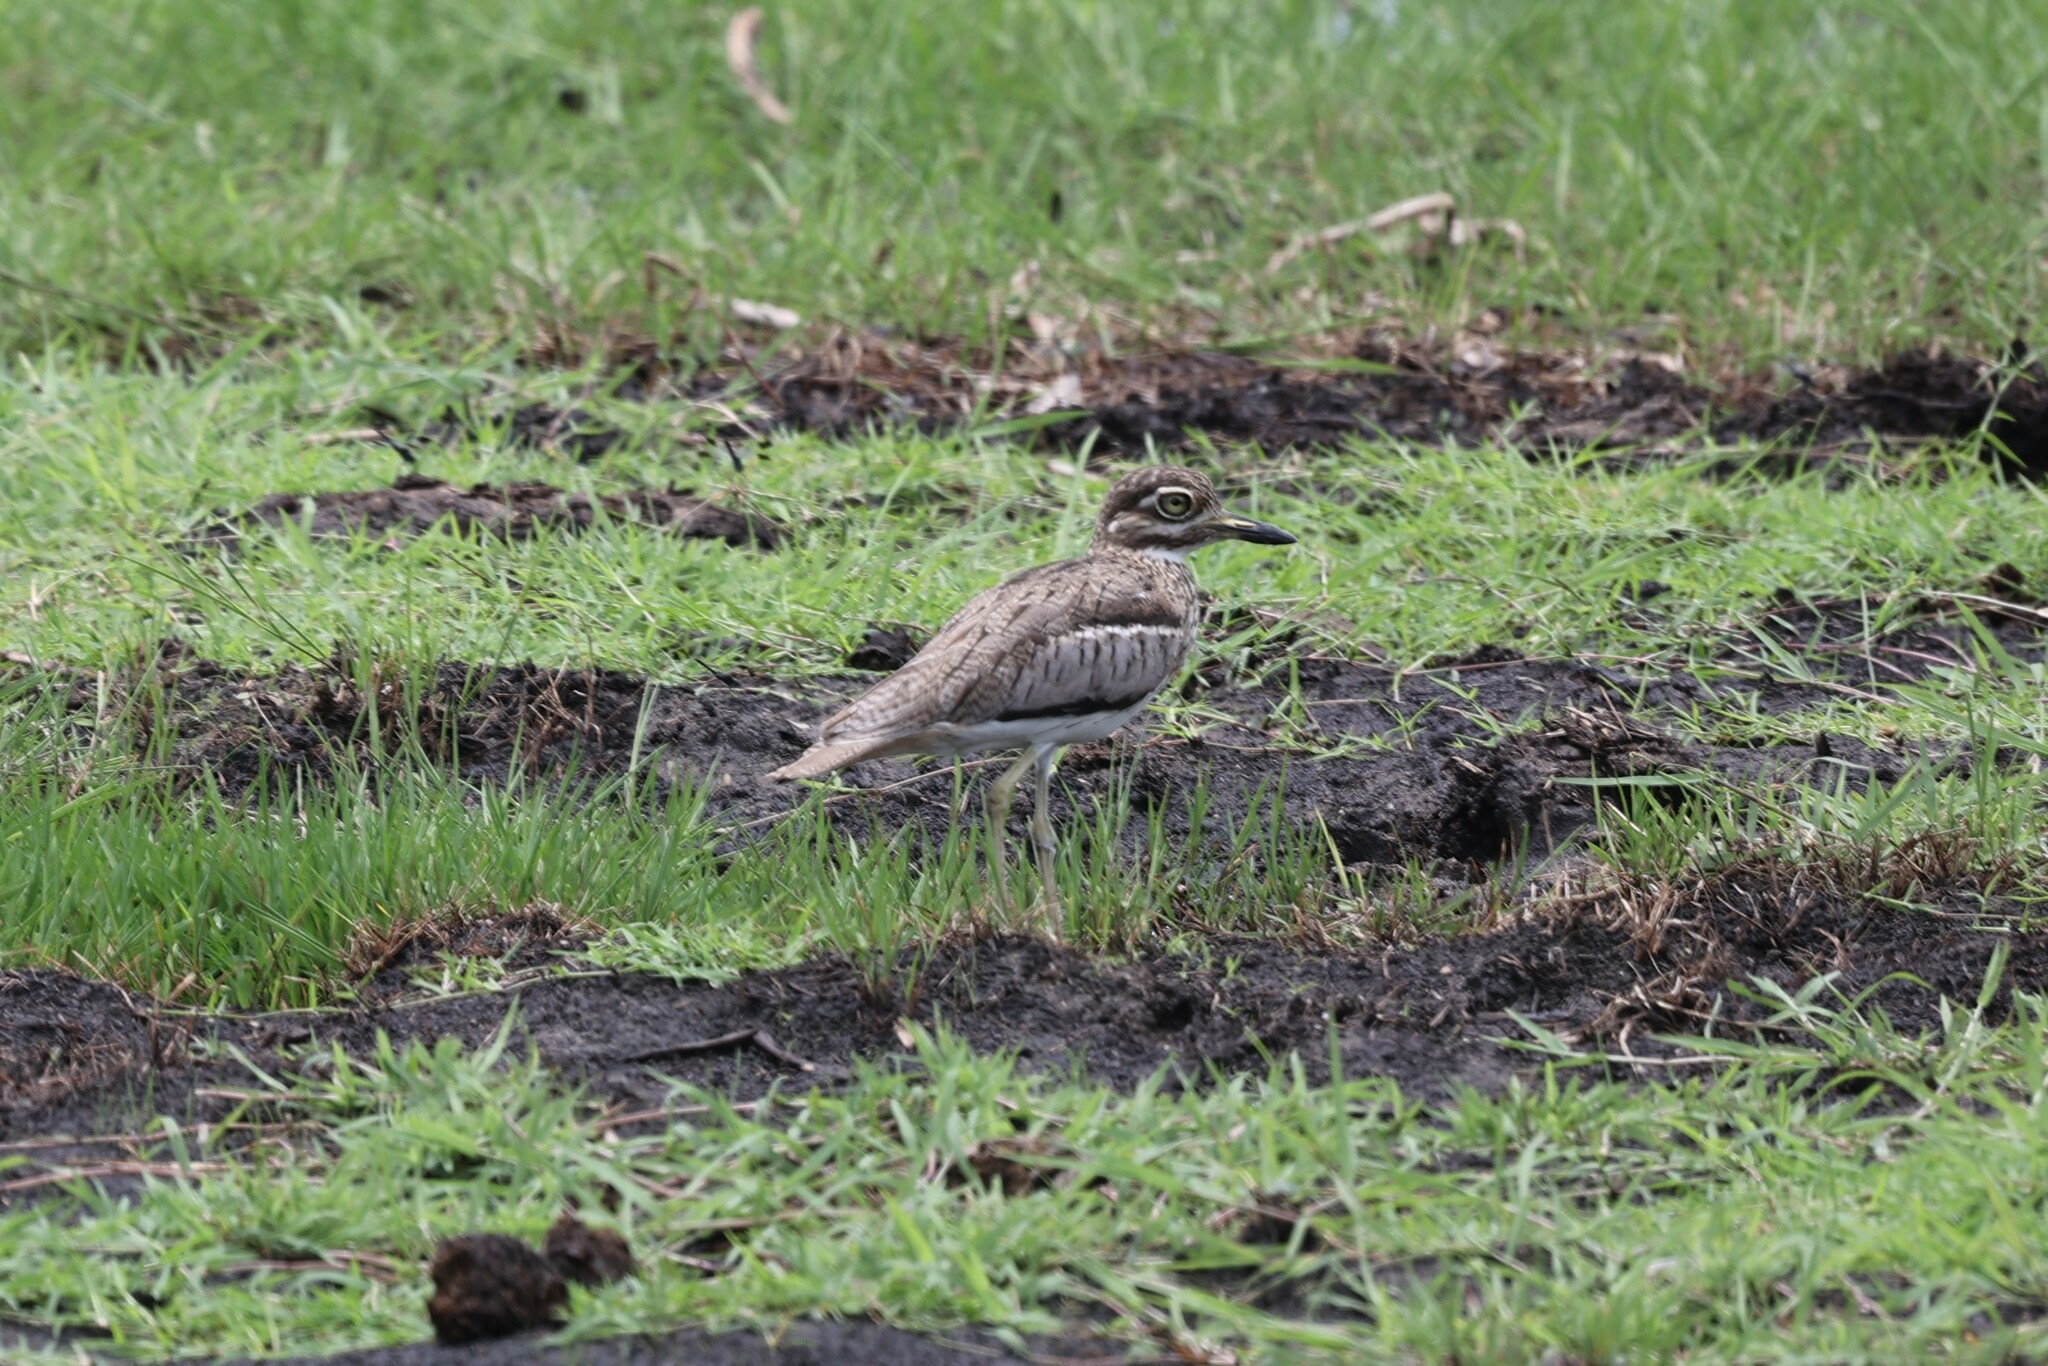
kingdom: Animalia
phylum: Chordata
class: Aves
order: Charadriiformes
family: Burhinidae
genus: Burhinus
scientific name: Burhinus vermiculatus
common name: Water thick-knee
